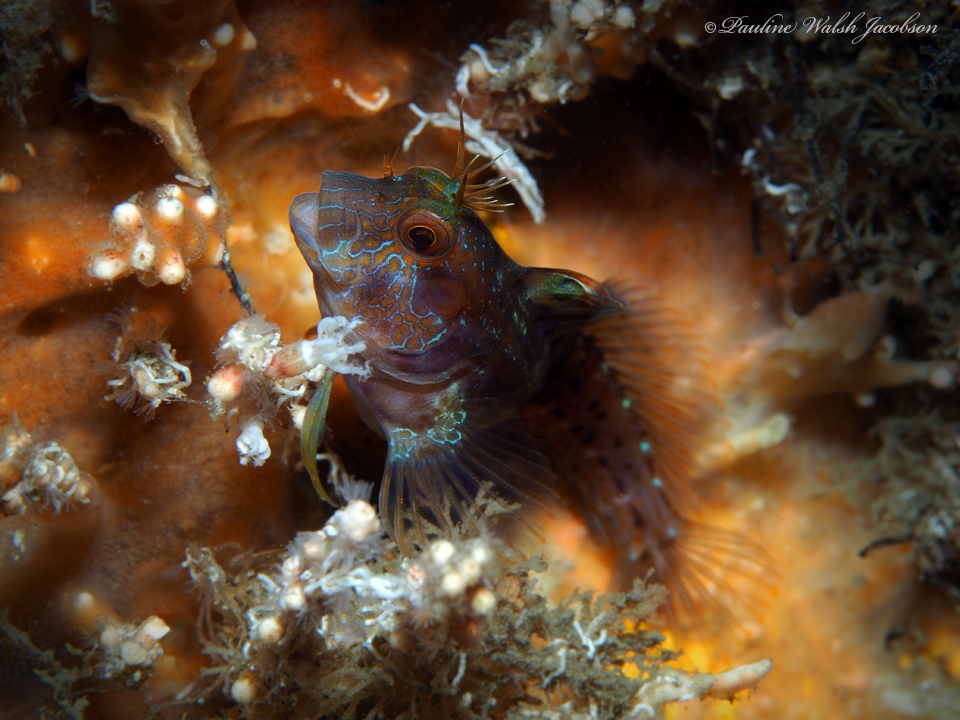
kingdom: Animalia
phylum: Chordata
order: Perciformes
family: Blenniidae
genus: Parablennius
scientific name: Parablennius marmoreus
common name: Seaweed blenny
